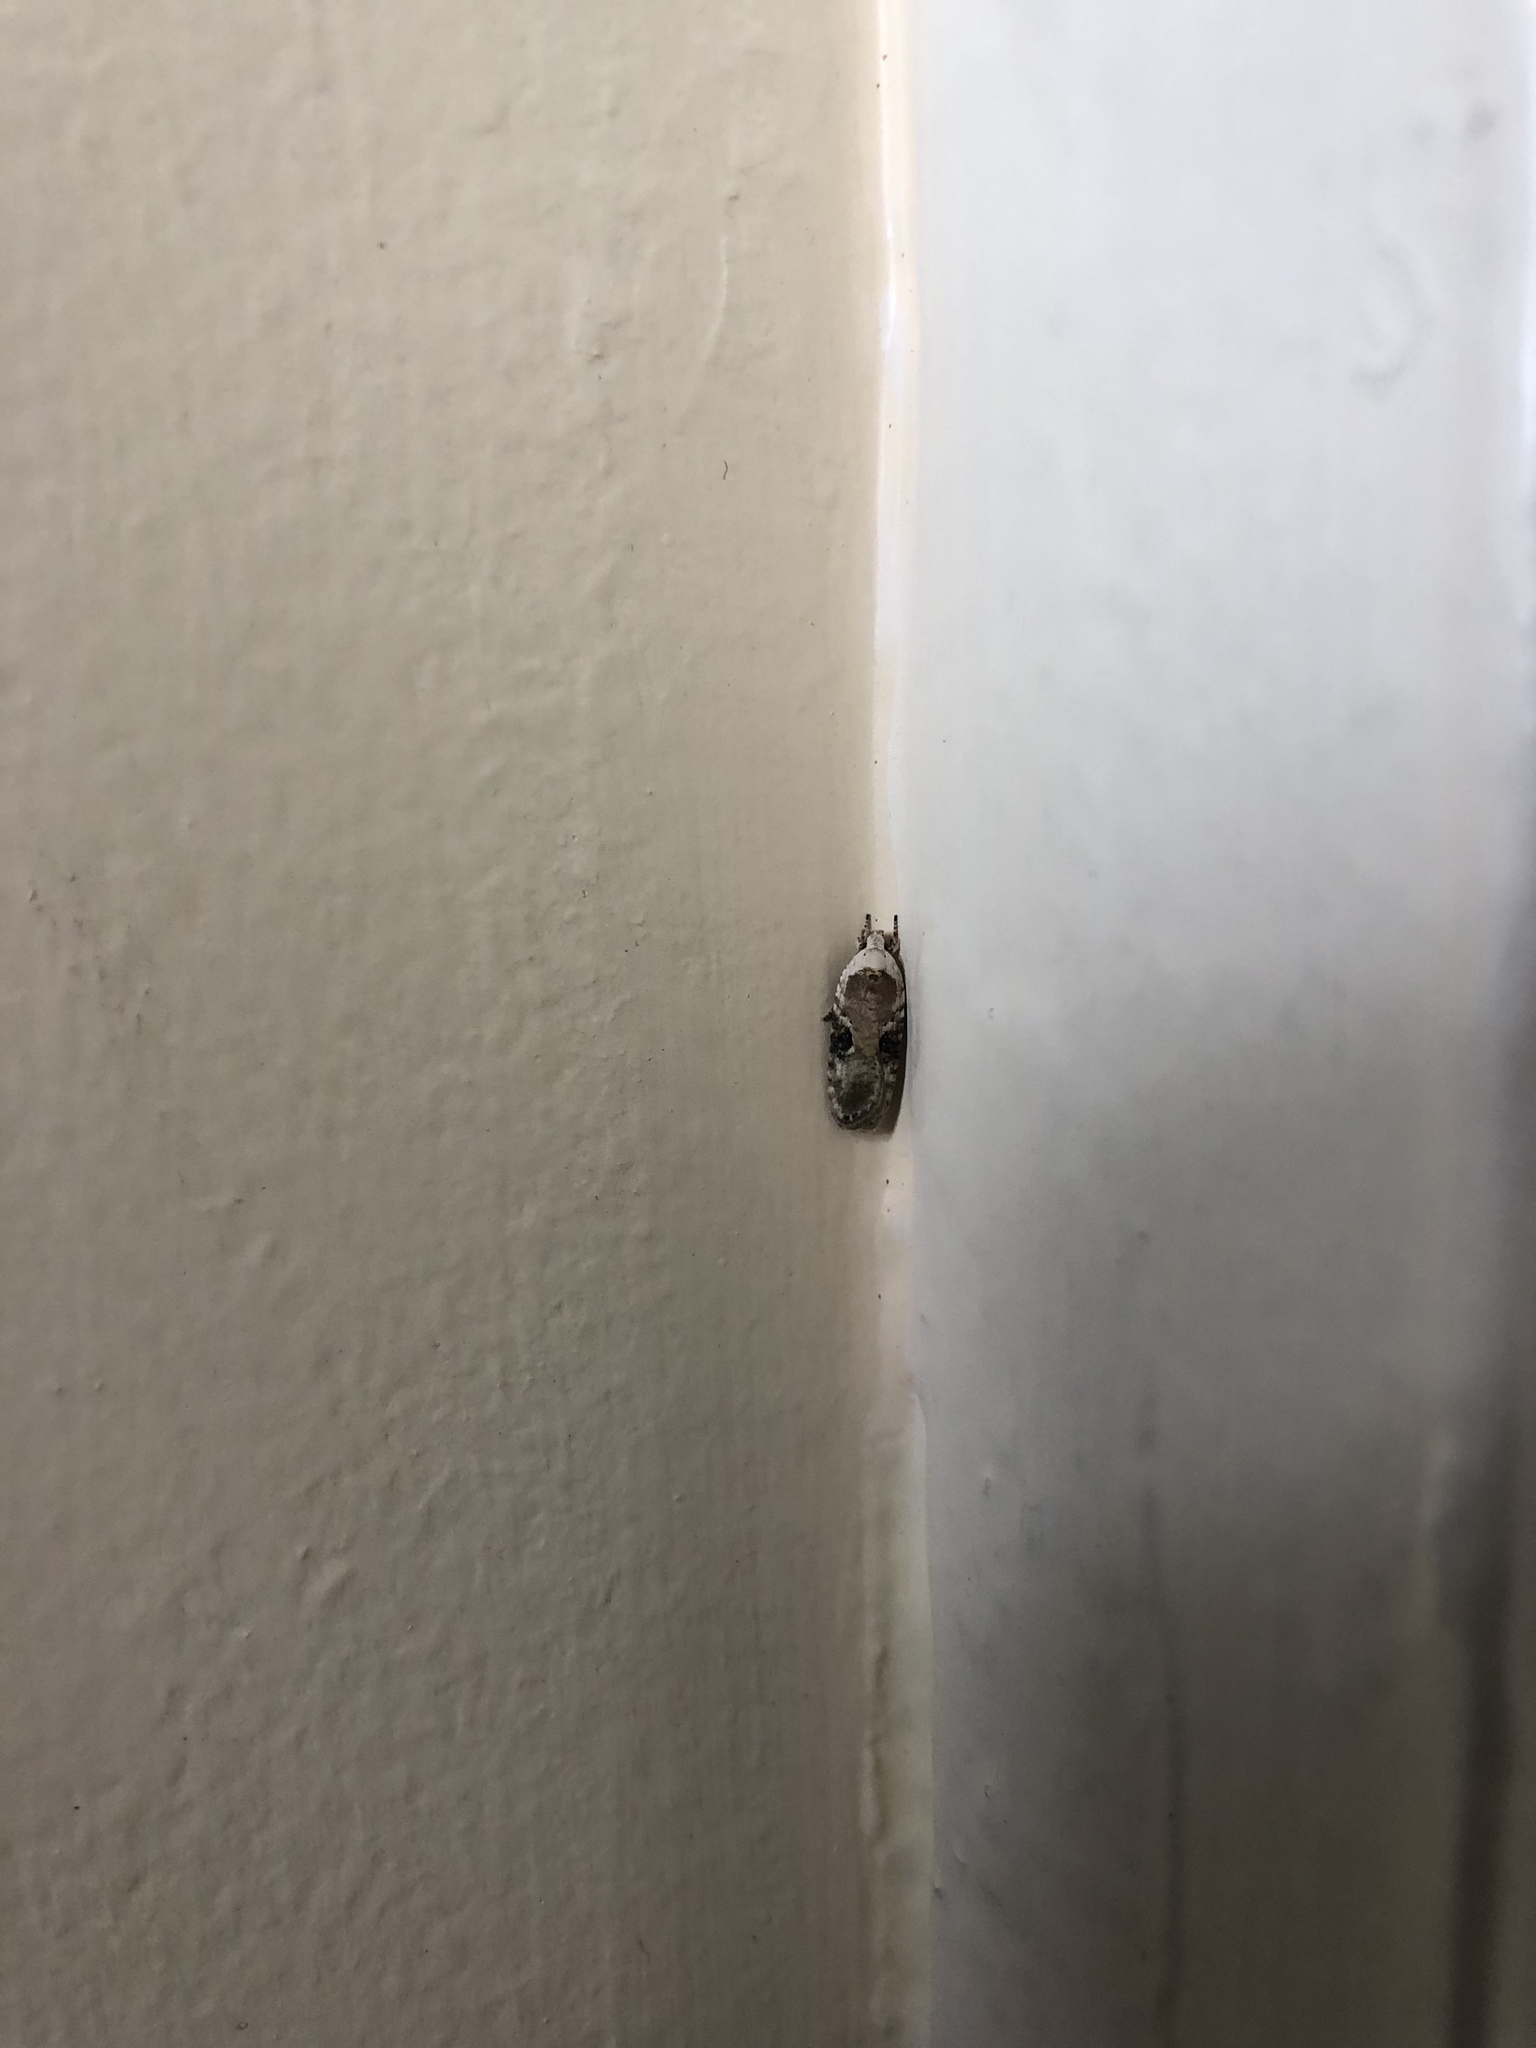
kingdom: Animalia
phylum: Arthropoda
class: Insecta
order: Lepidoptera
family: Depressariidae
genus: Agonopterix
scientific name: Agonopterix alstroemeriana
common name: Moth
